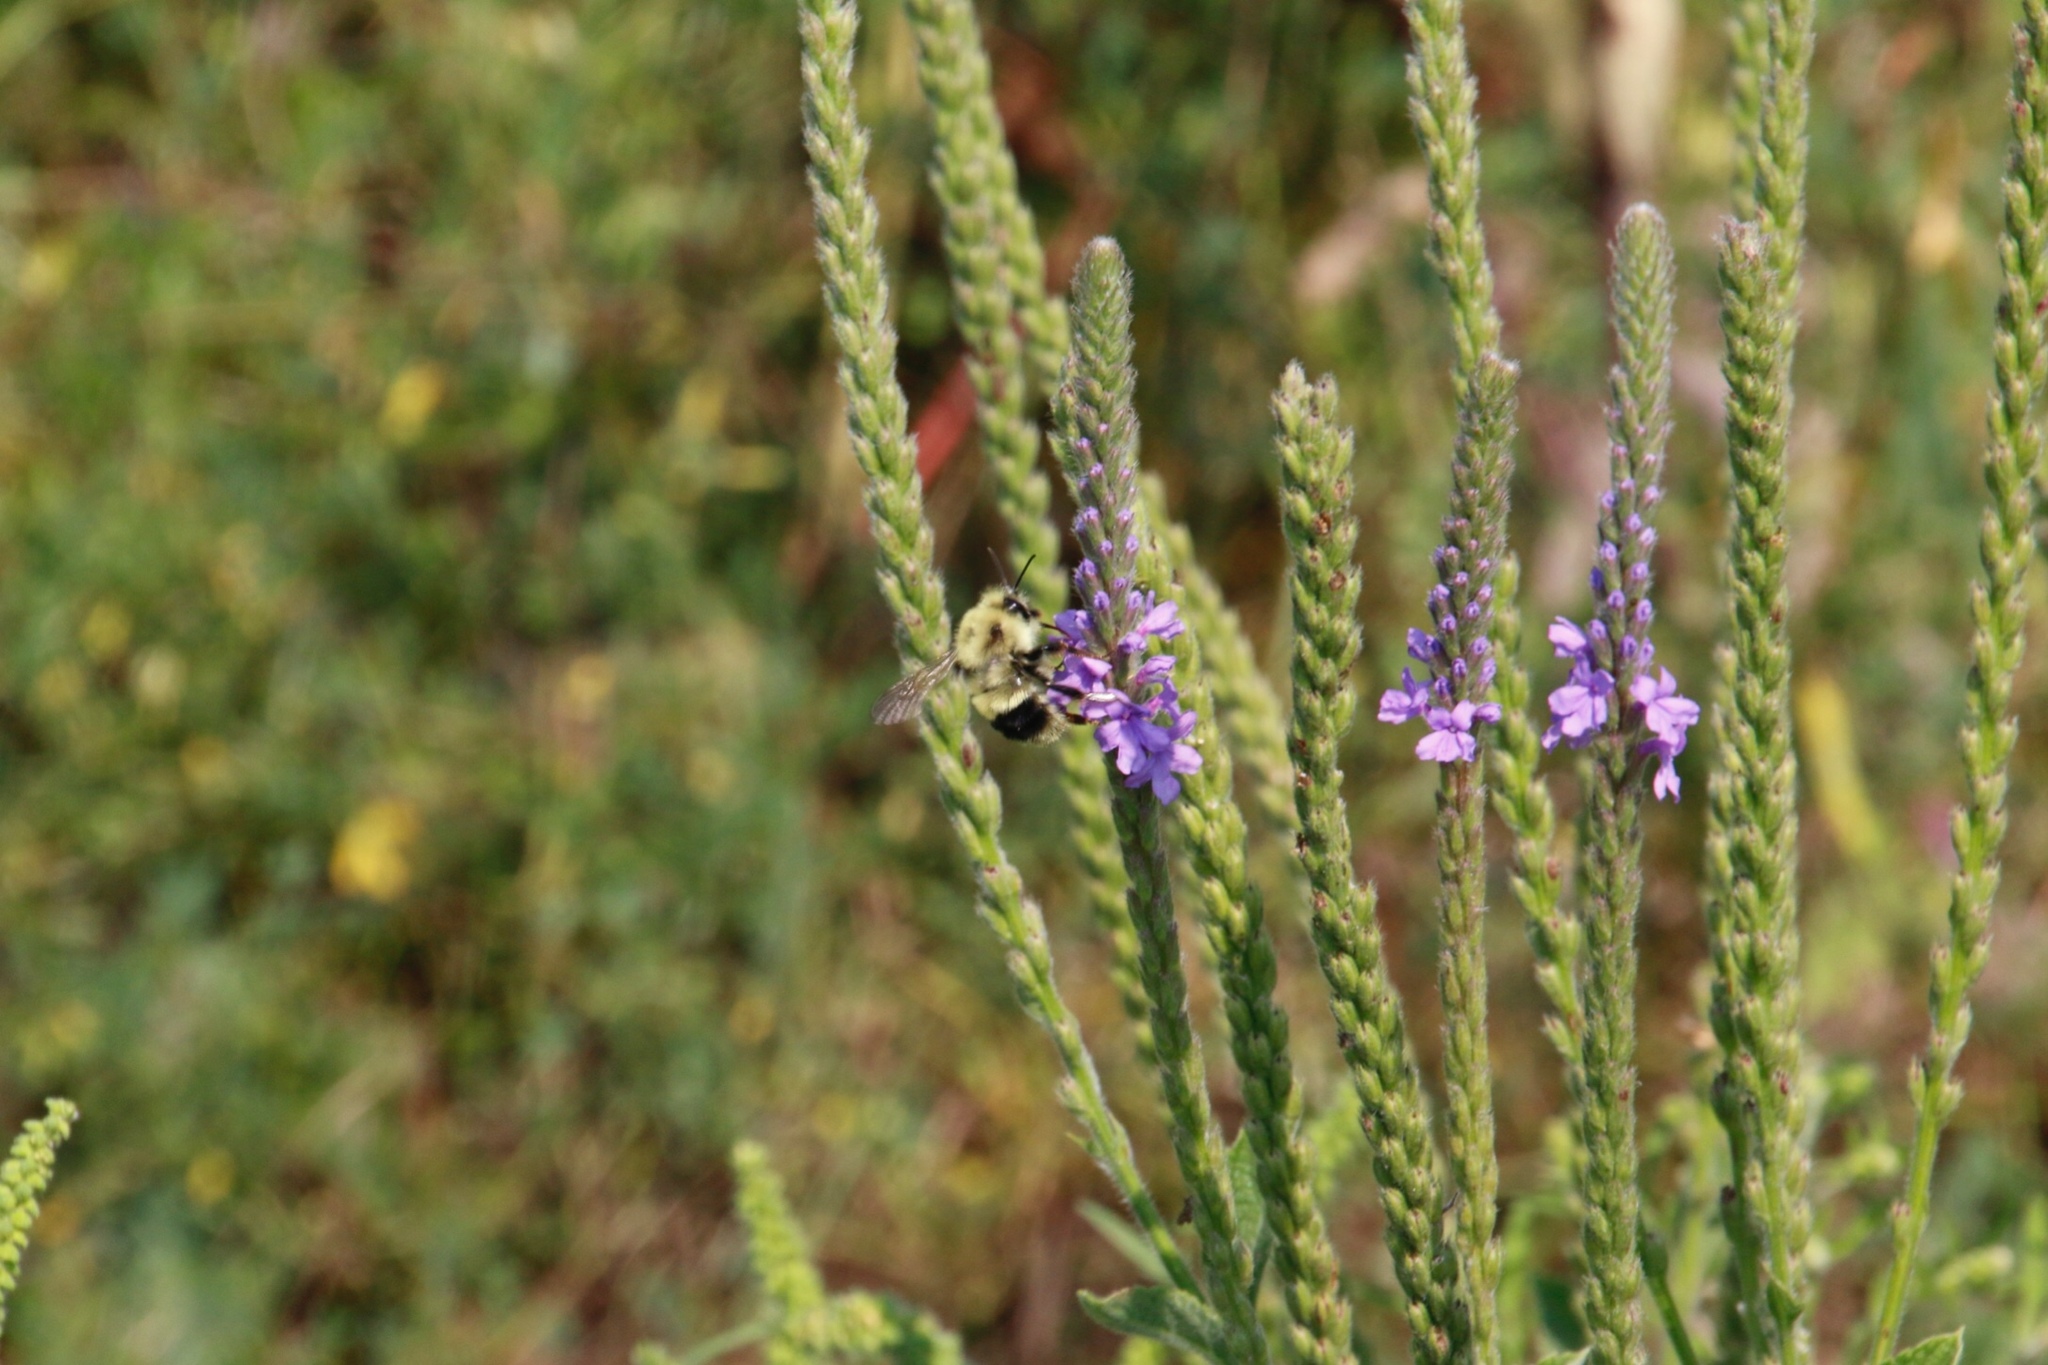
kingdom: Animalia
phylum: Arthropoda
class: Insecta
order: Hymenoptera
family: Apidae
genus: Pyrobombus
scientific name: Pyrobombus
